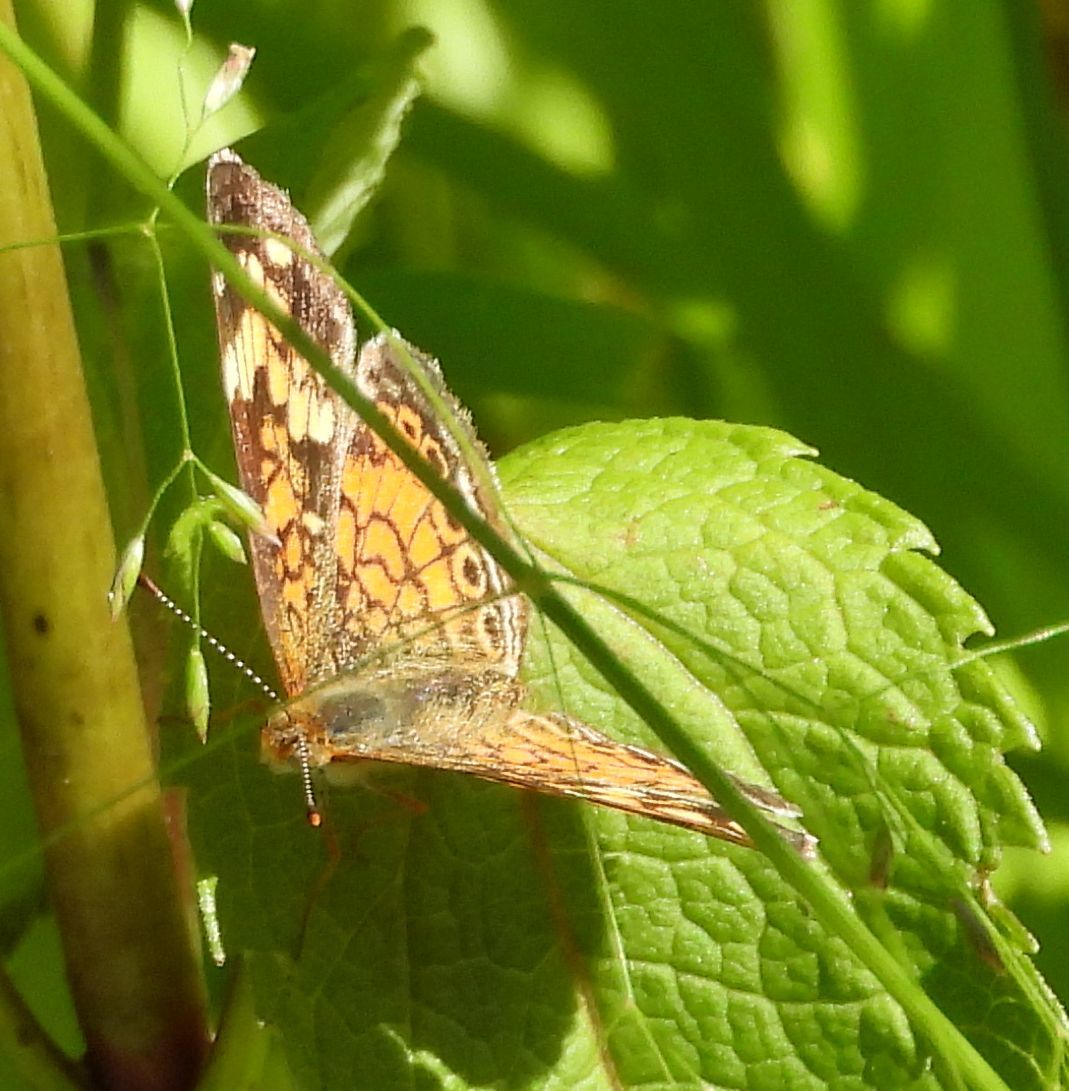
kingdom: Animalia
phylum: Arthropoda
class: Insecta
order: Lepidoptera
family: Nymphalidae
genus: Phyciodes
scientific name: Phyciodes tharos
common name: Pearl crescent
